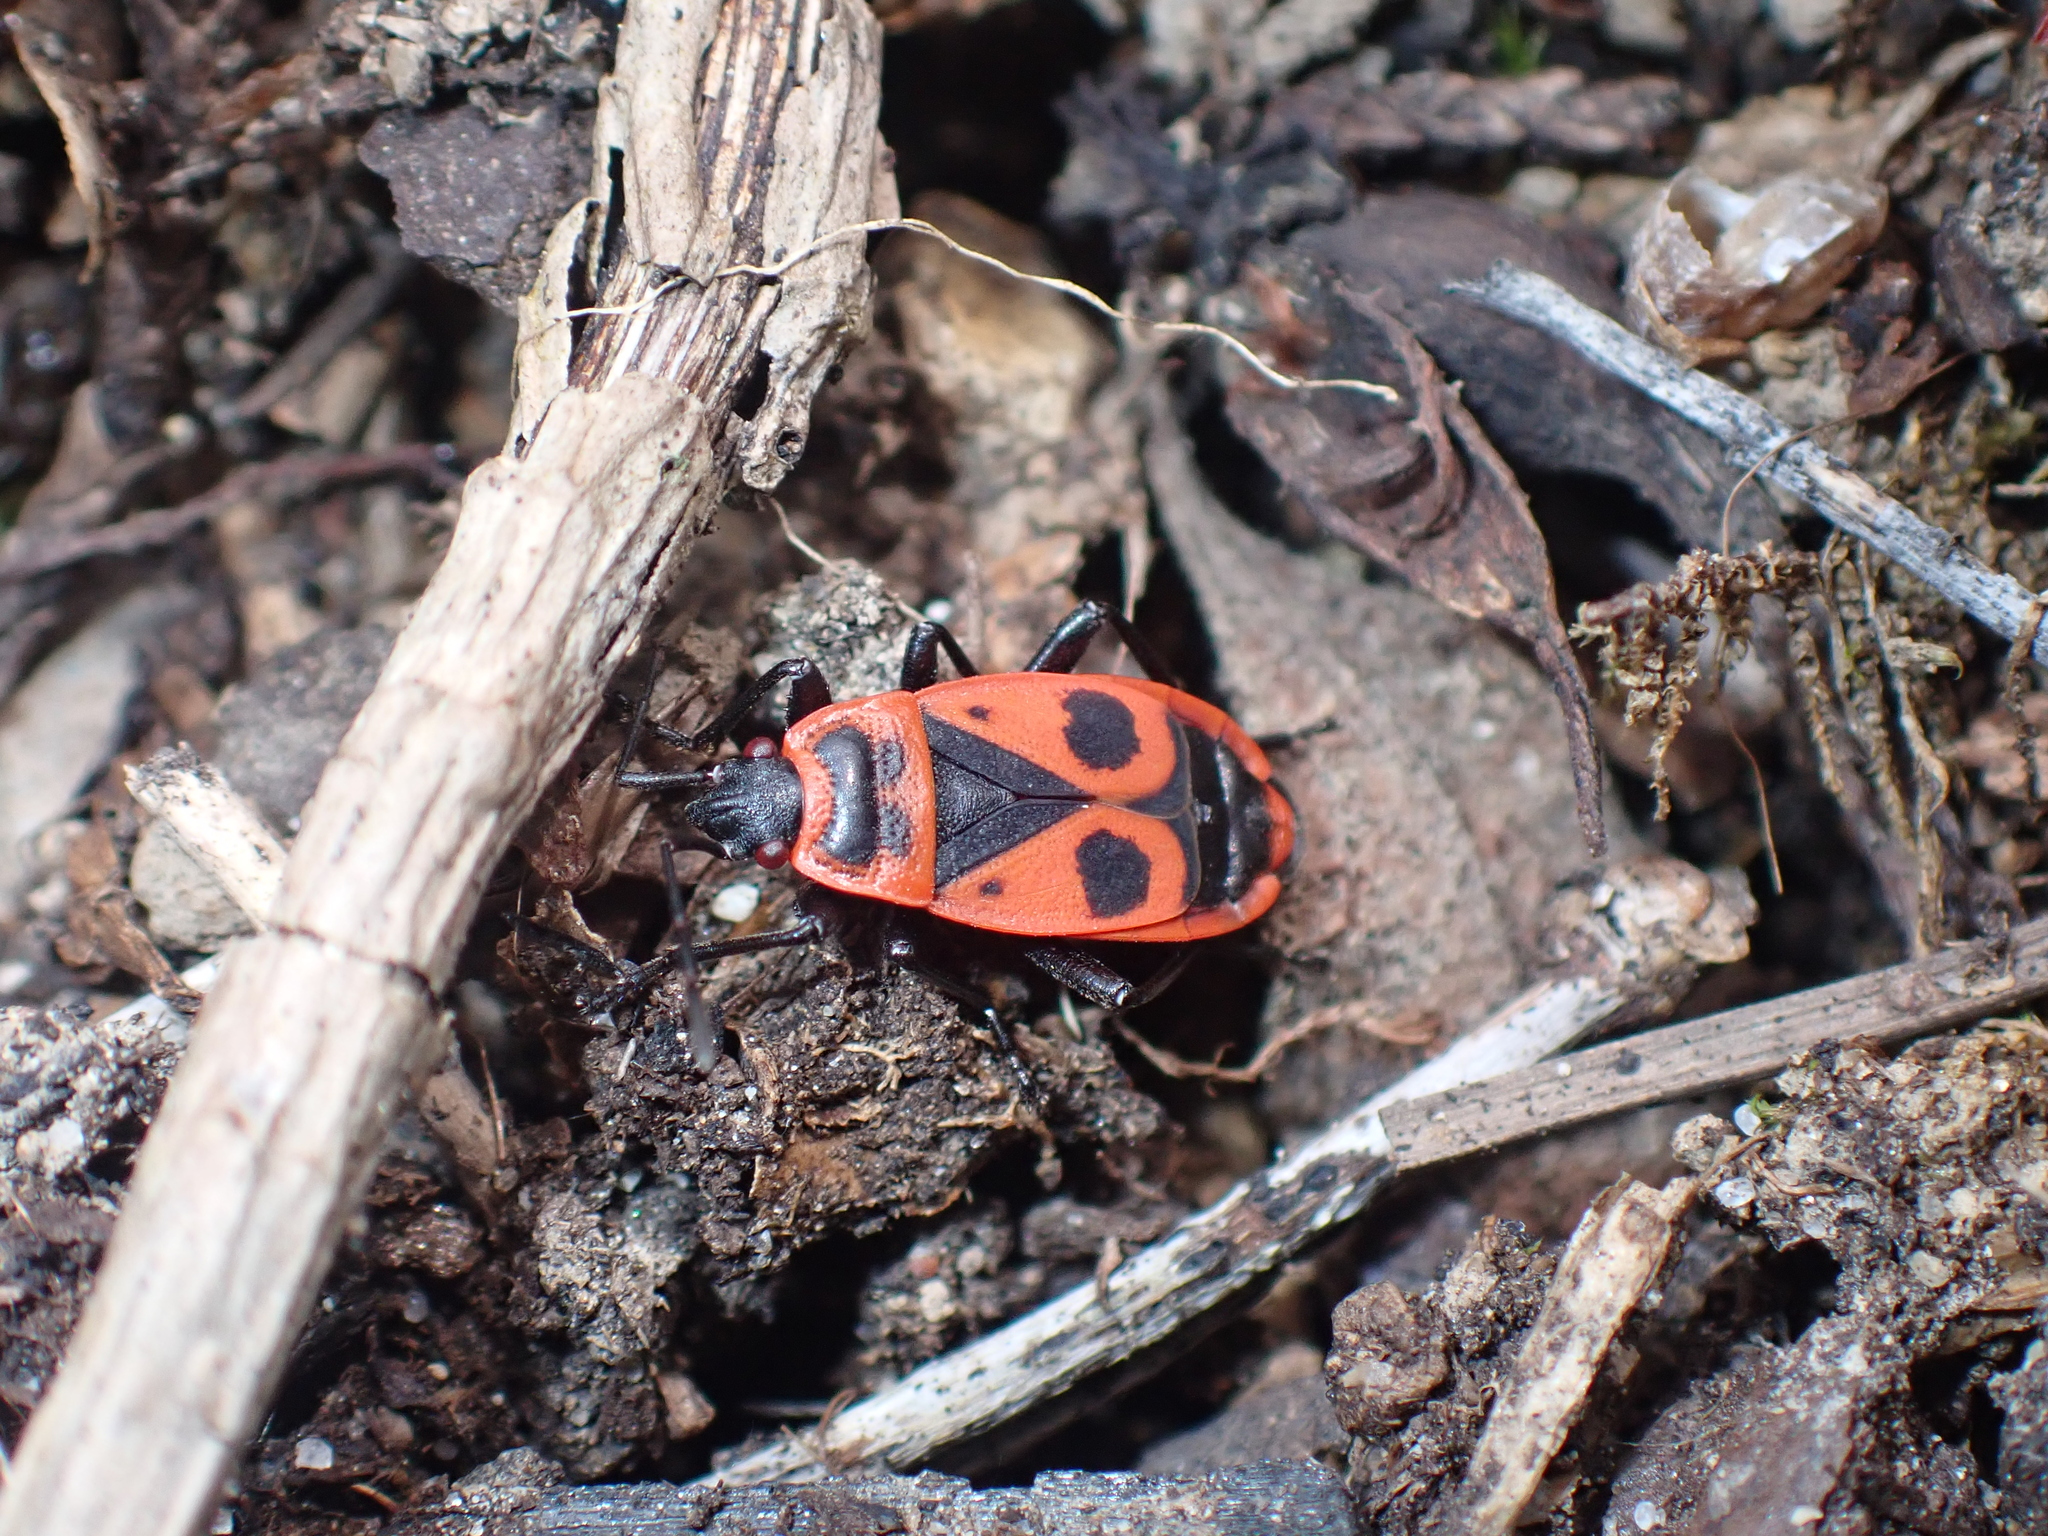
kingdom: Animalia
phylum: Arthropoda
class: Insecta
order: Hemiptera
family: Pyrrhocoridae
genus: Pyrrhocoris
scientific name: Pyrrhocoris apterus
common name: Firebug
